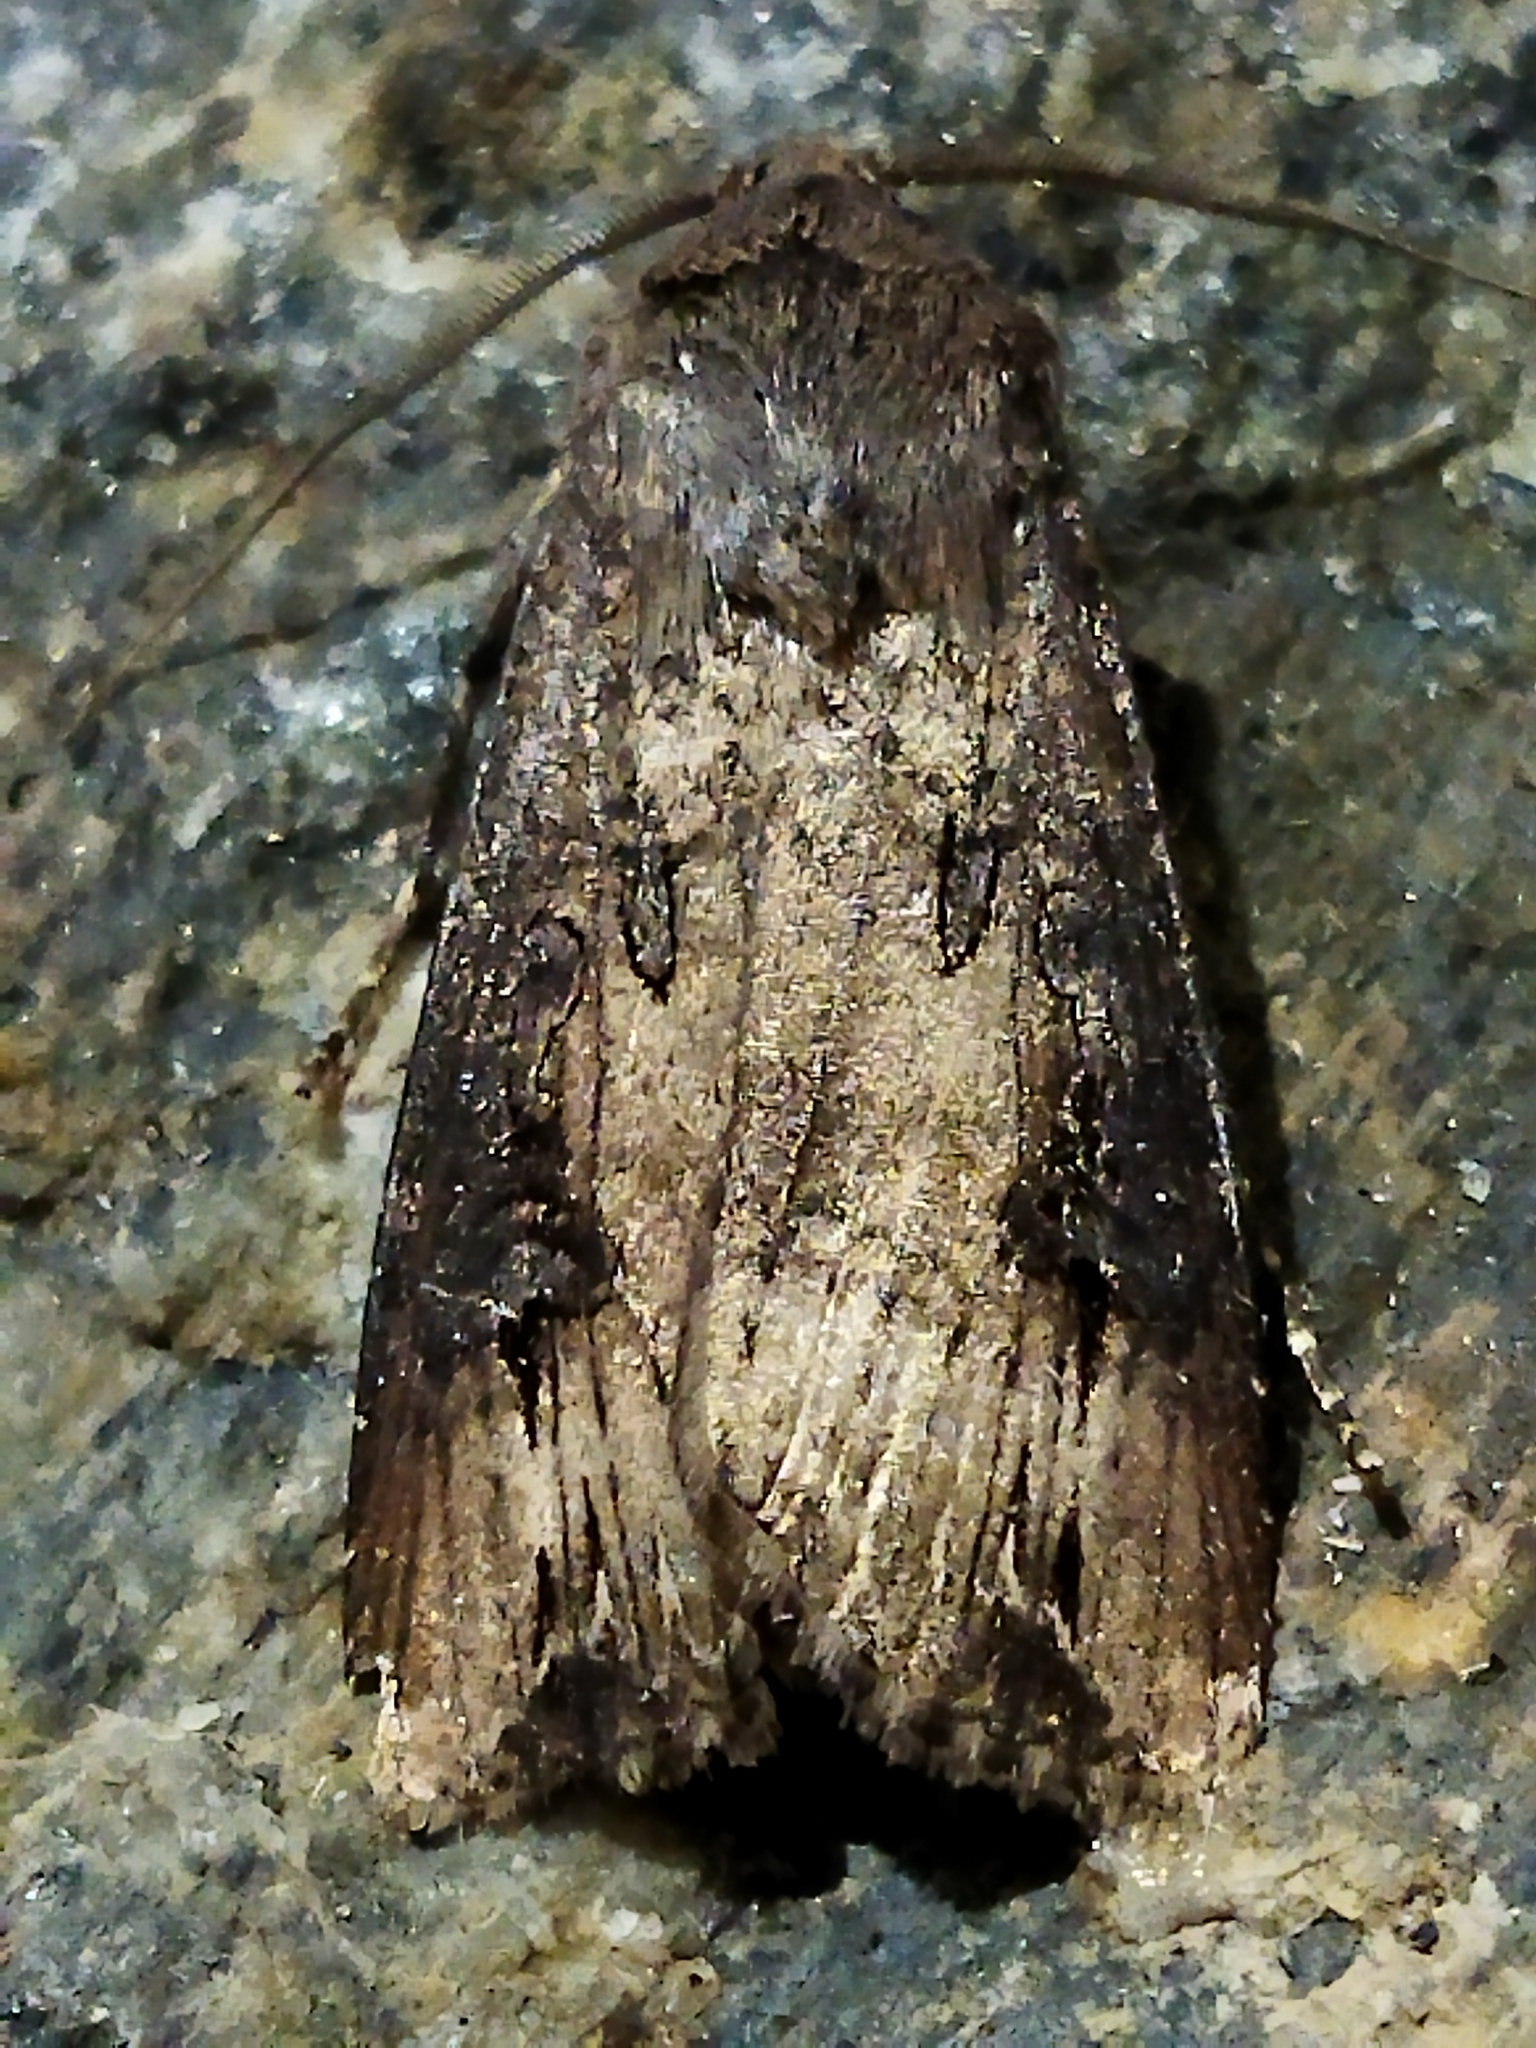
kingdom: Animalia
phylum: Arthropoda
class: Insecta
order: Lepidoptera
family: Noctuidae
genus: Agrotis
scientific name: Agrotis ipsilon
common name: Dark sword-grass
